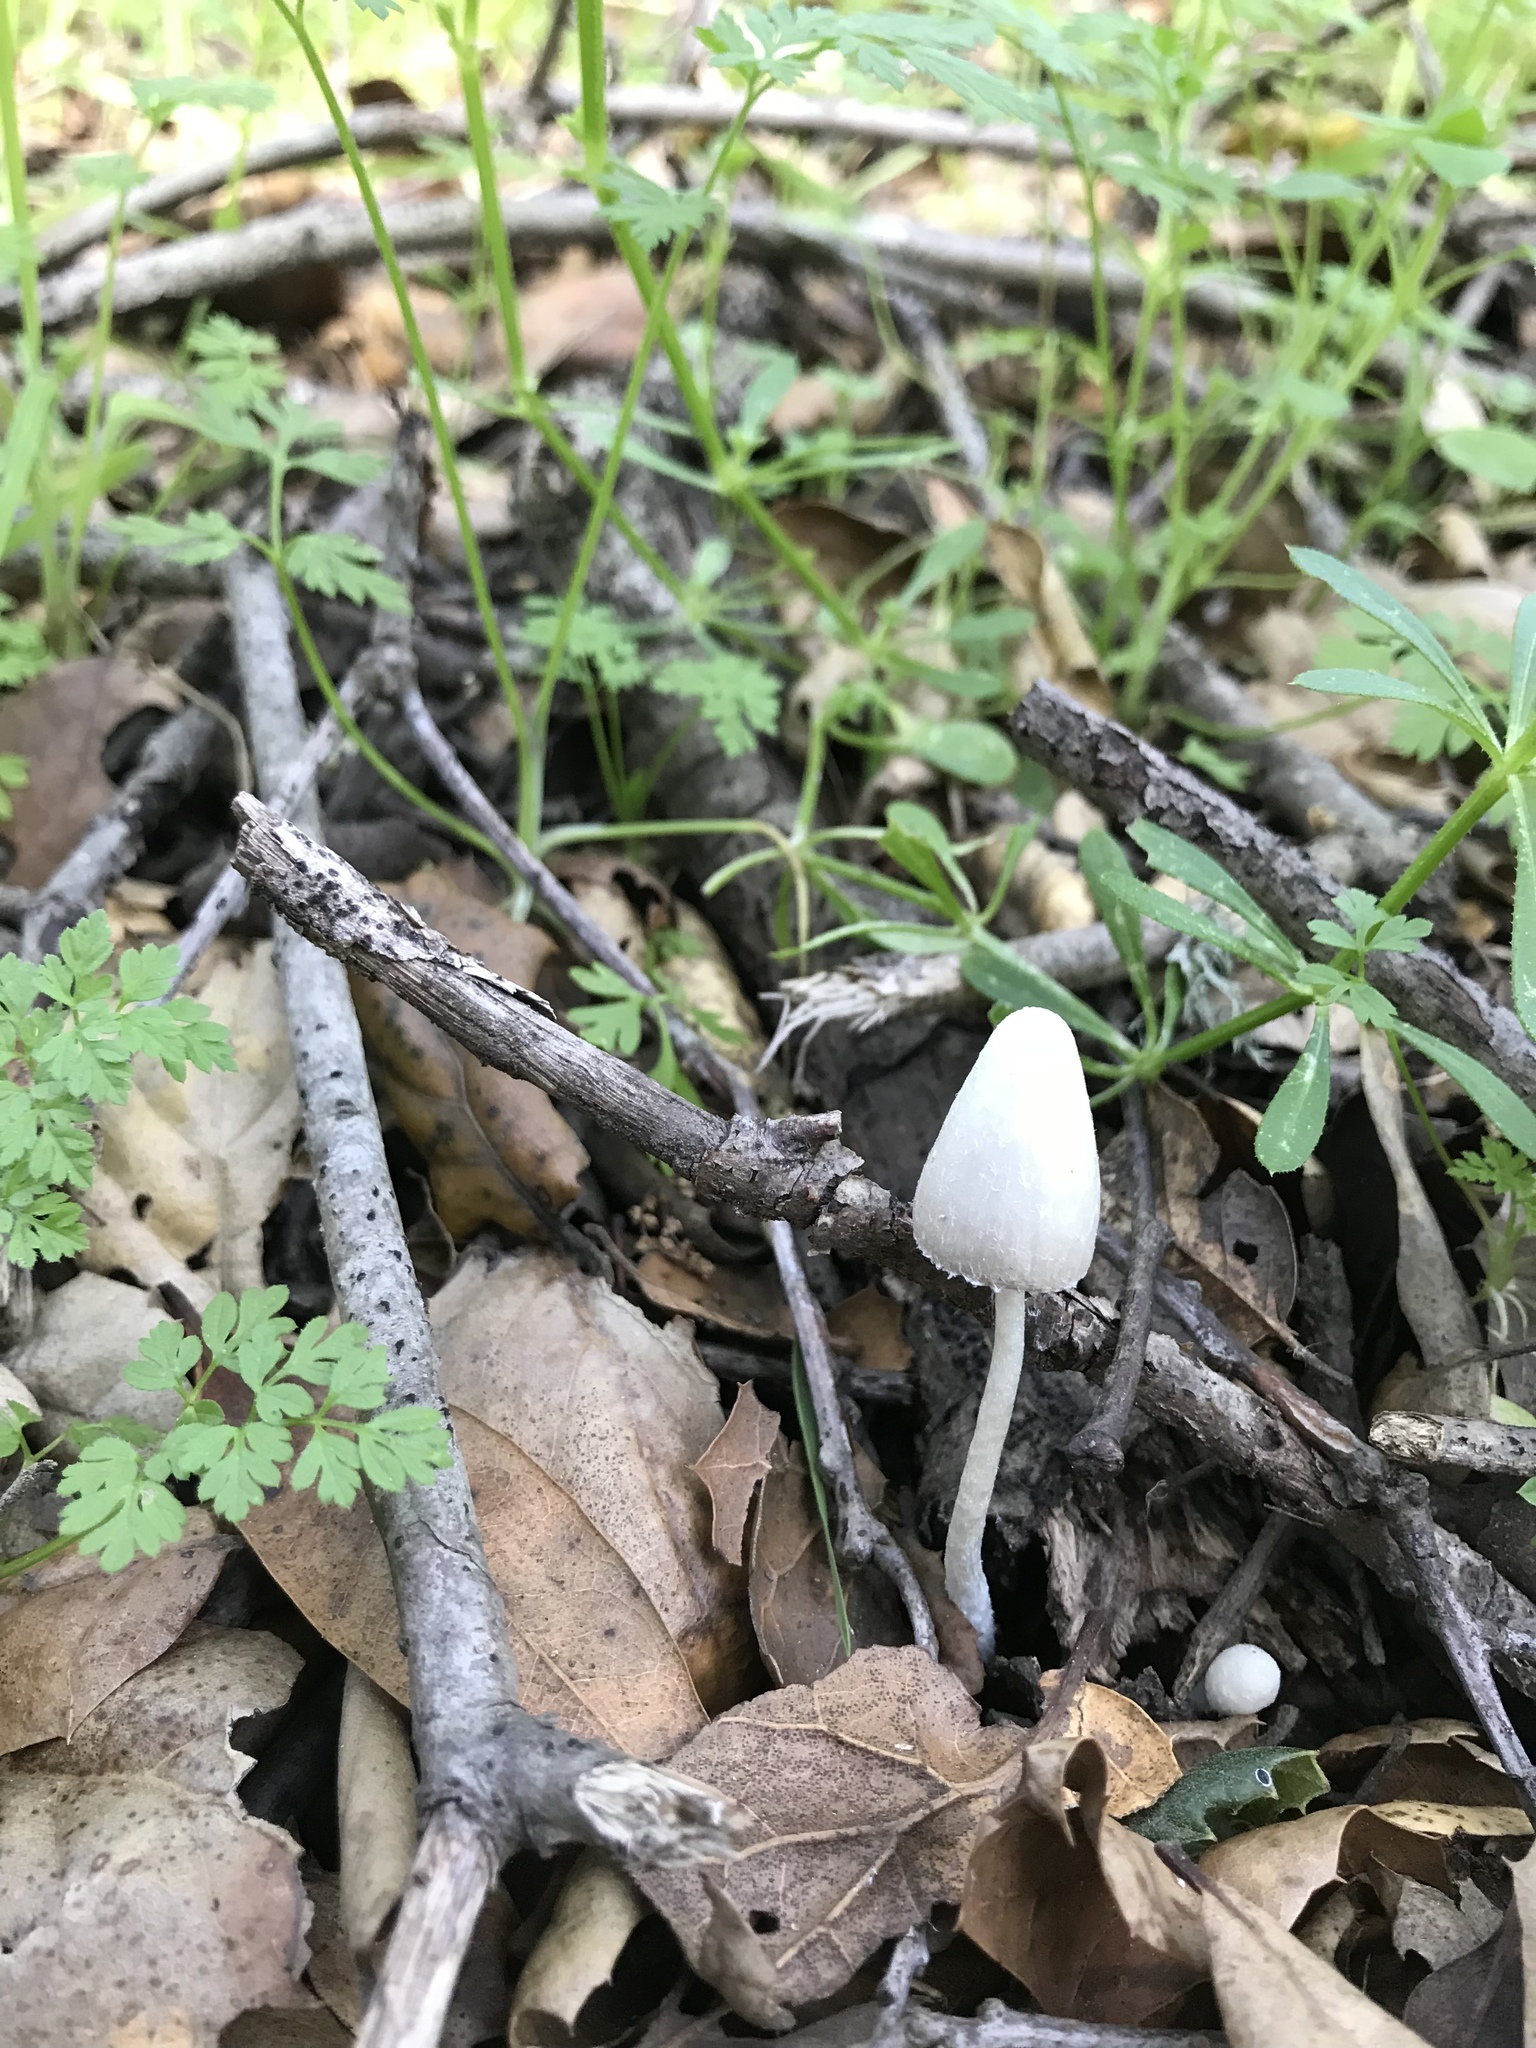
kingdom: Fungi
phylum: Basidiomycota
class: Agaricomycetes
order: Agaricales
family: Psathyrellaceae
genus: Coprinopsis
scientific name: Coprinopsis marcescibilis
